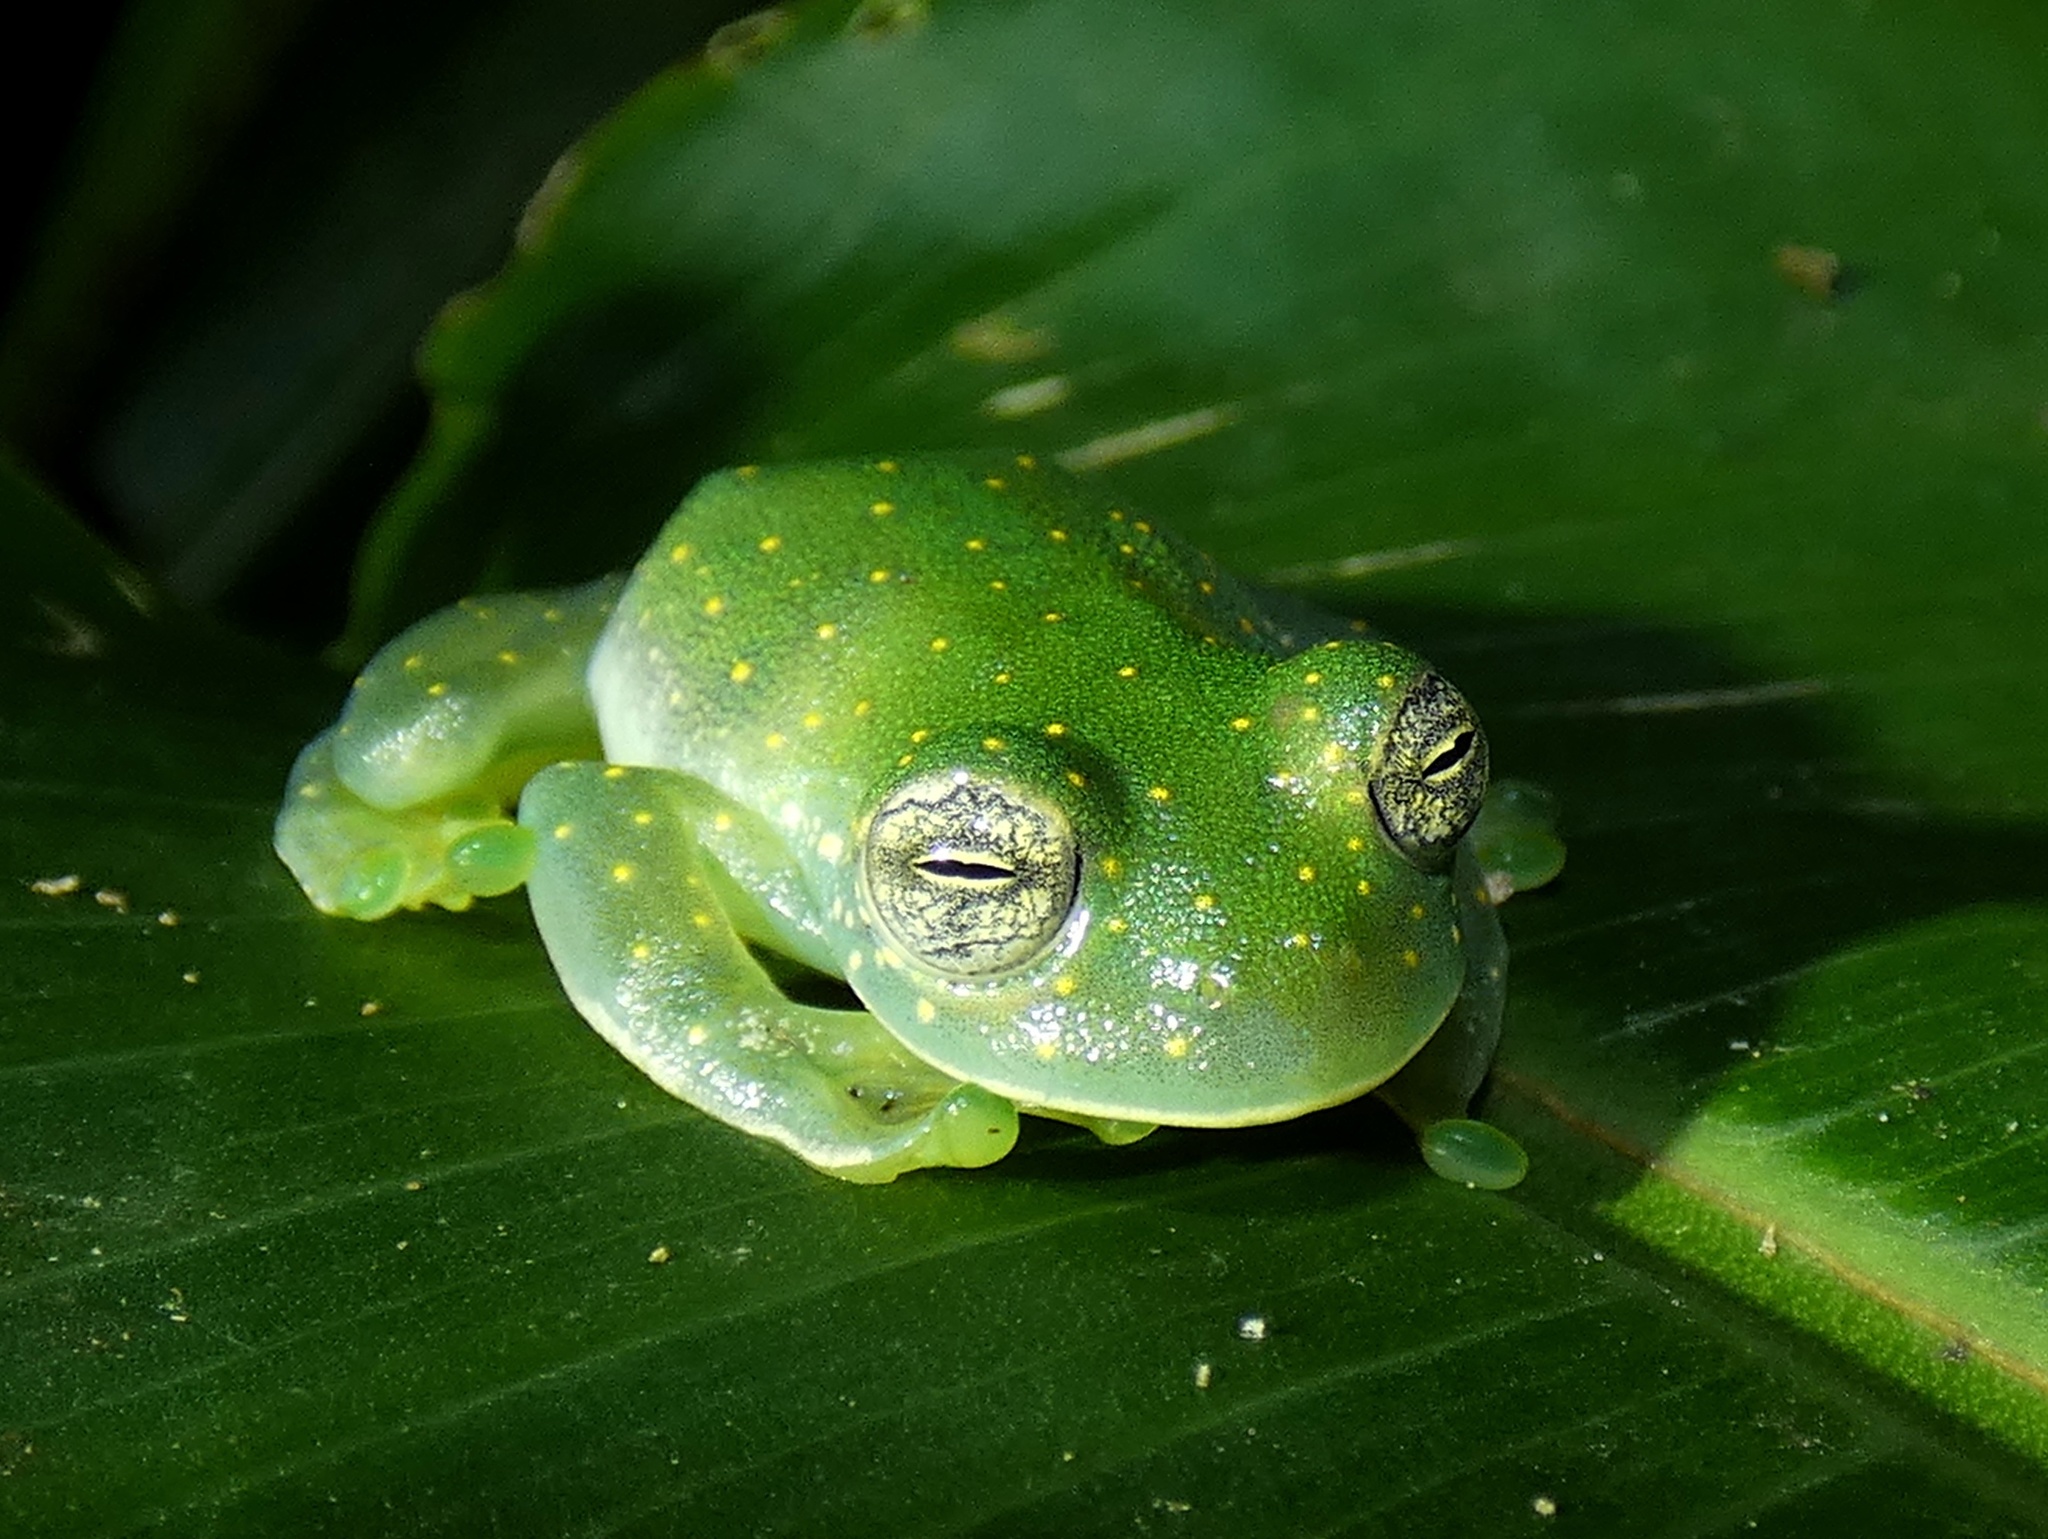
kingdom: Animalia
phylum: Chordata
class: Amphibia
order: Anura
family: Centrolenidae
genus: Sachatamia
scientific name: Sachatamia albomaculata
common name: Rana de cristal de cascada
